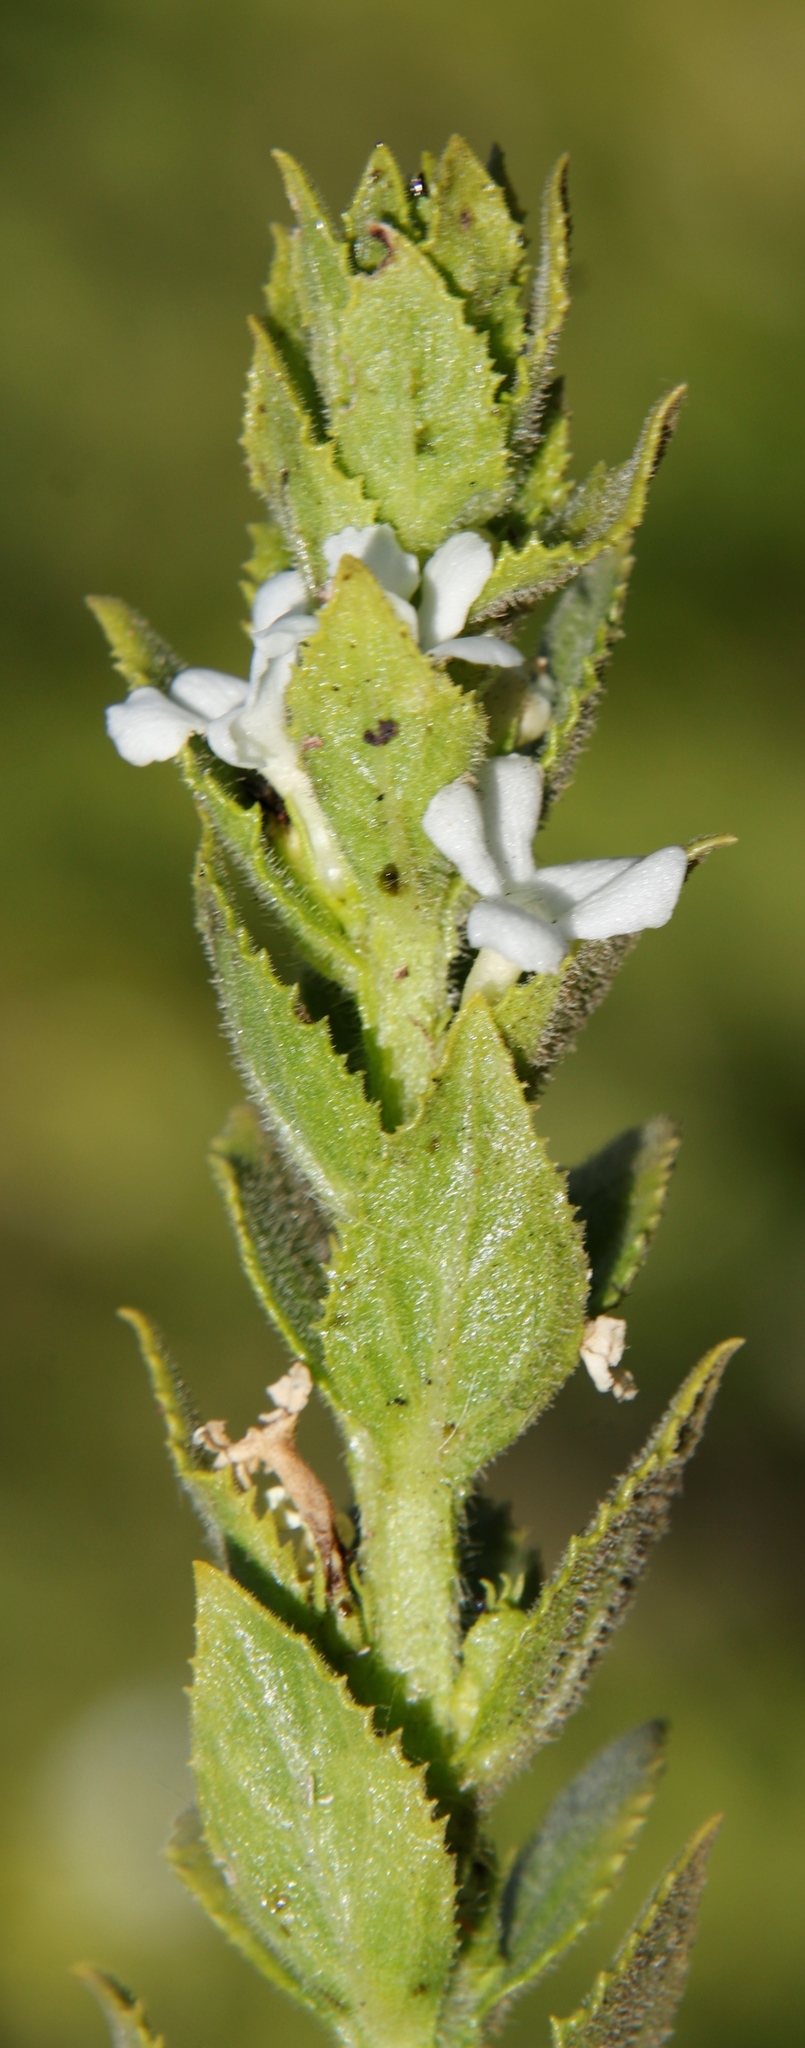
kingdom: Plantae
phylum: Tracheophyta
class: Magnoliopsida
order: Lamiales
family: Scrophulariaceae
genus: Oftia
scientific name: Oftia africana
